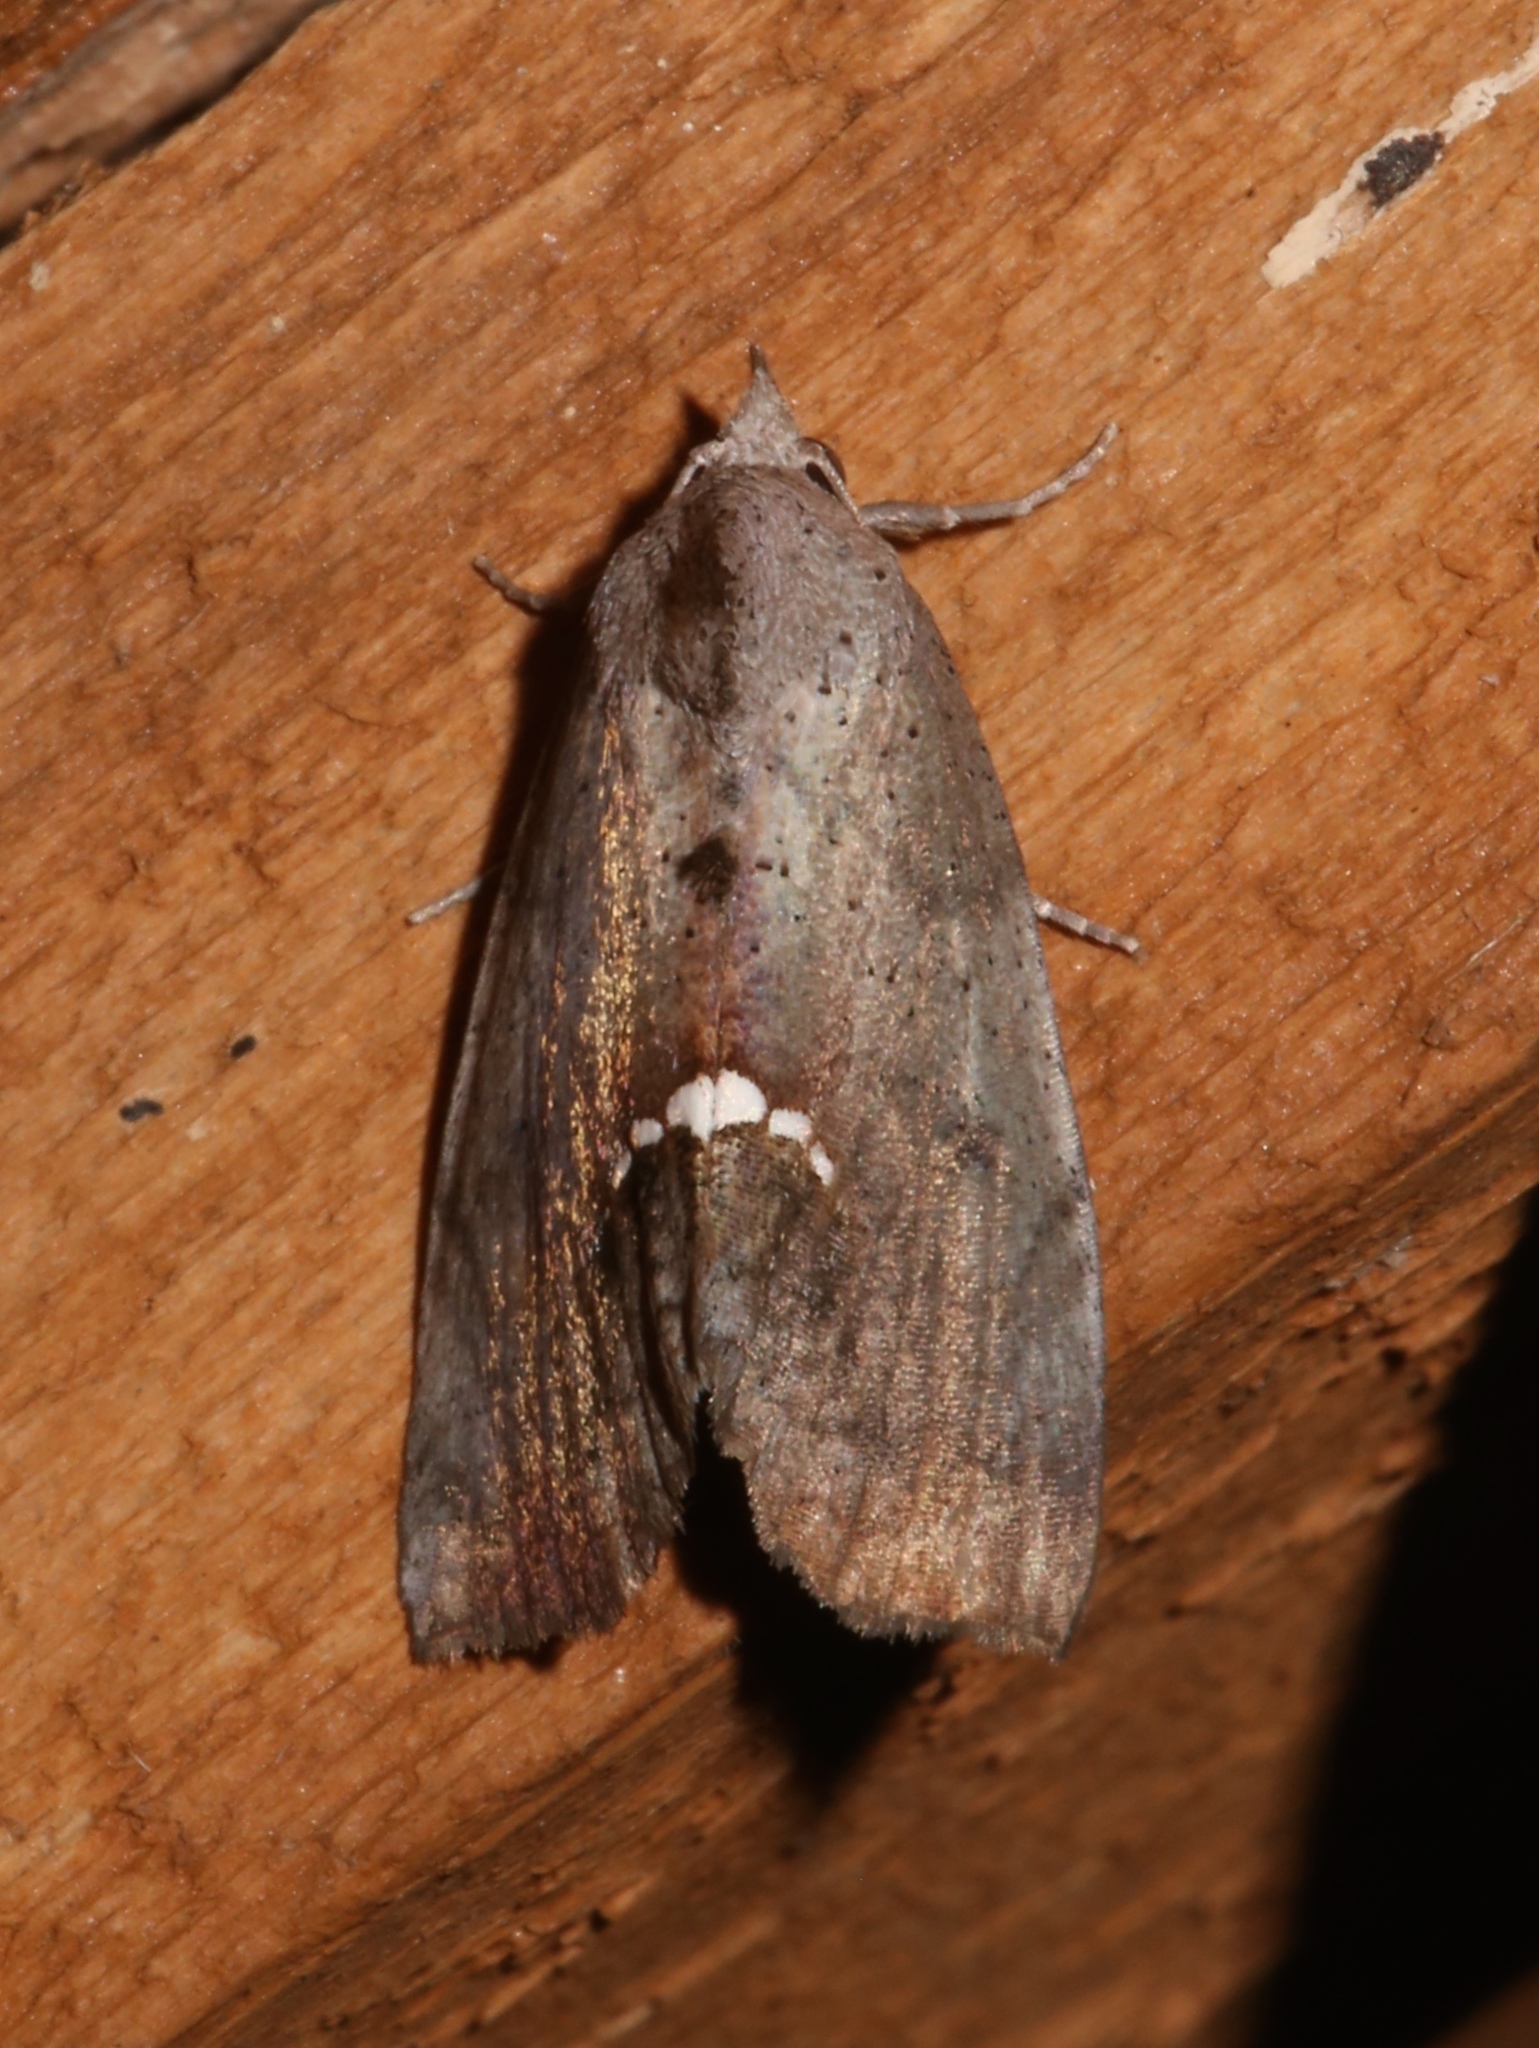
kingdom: Animalia
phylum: Arthropoda
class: Insecta
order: Lepidoptera
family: Erebidae
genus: Hypsoropha
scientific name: Hypsoropha hormos
